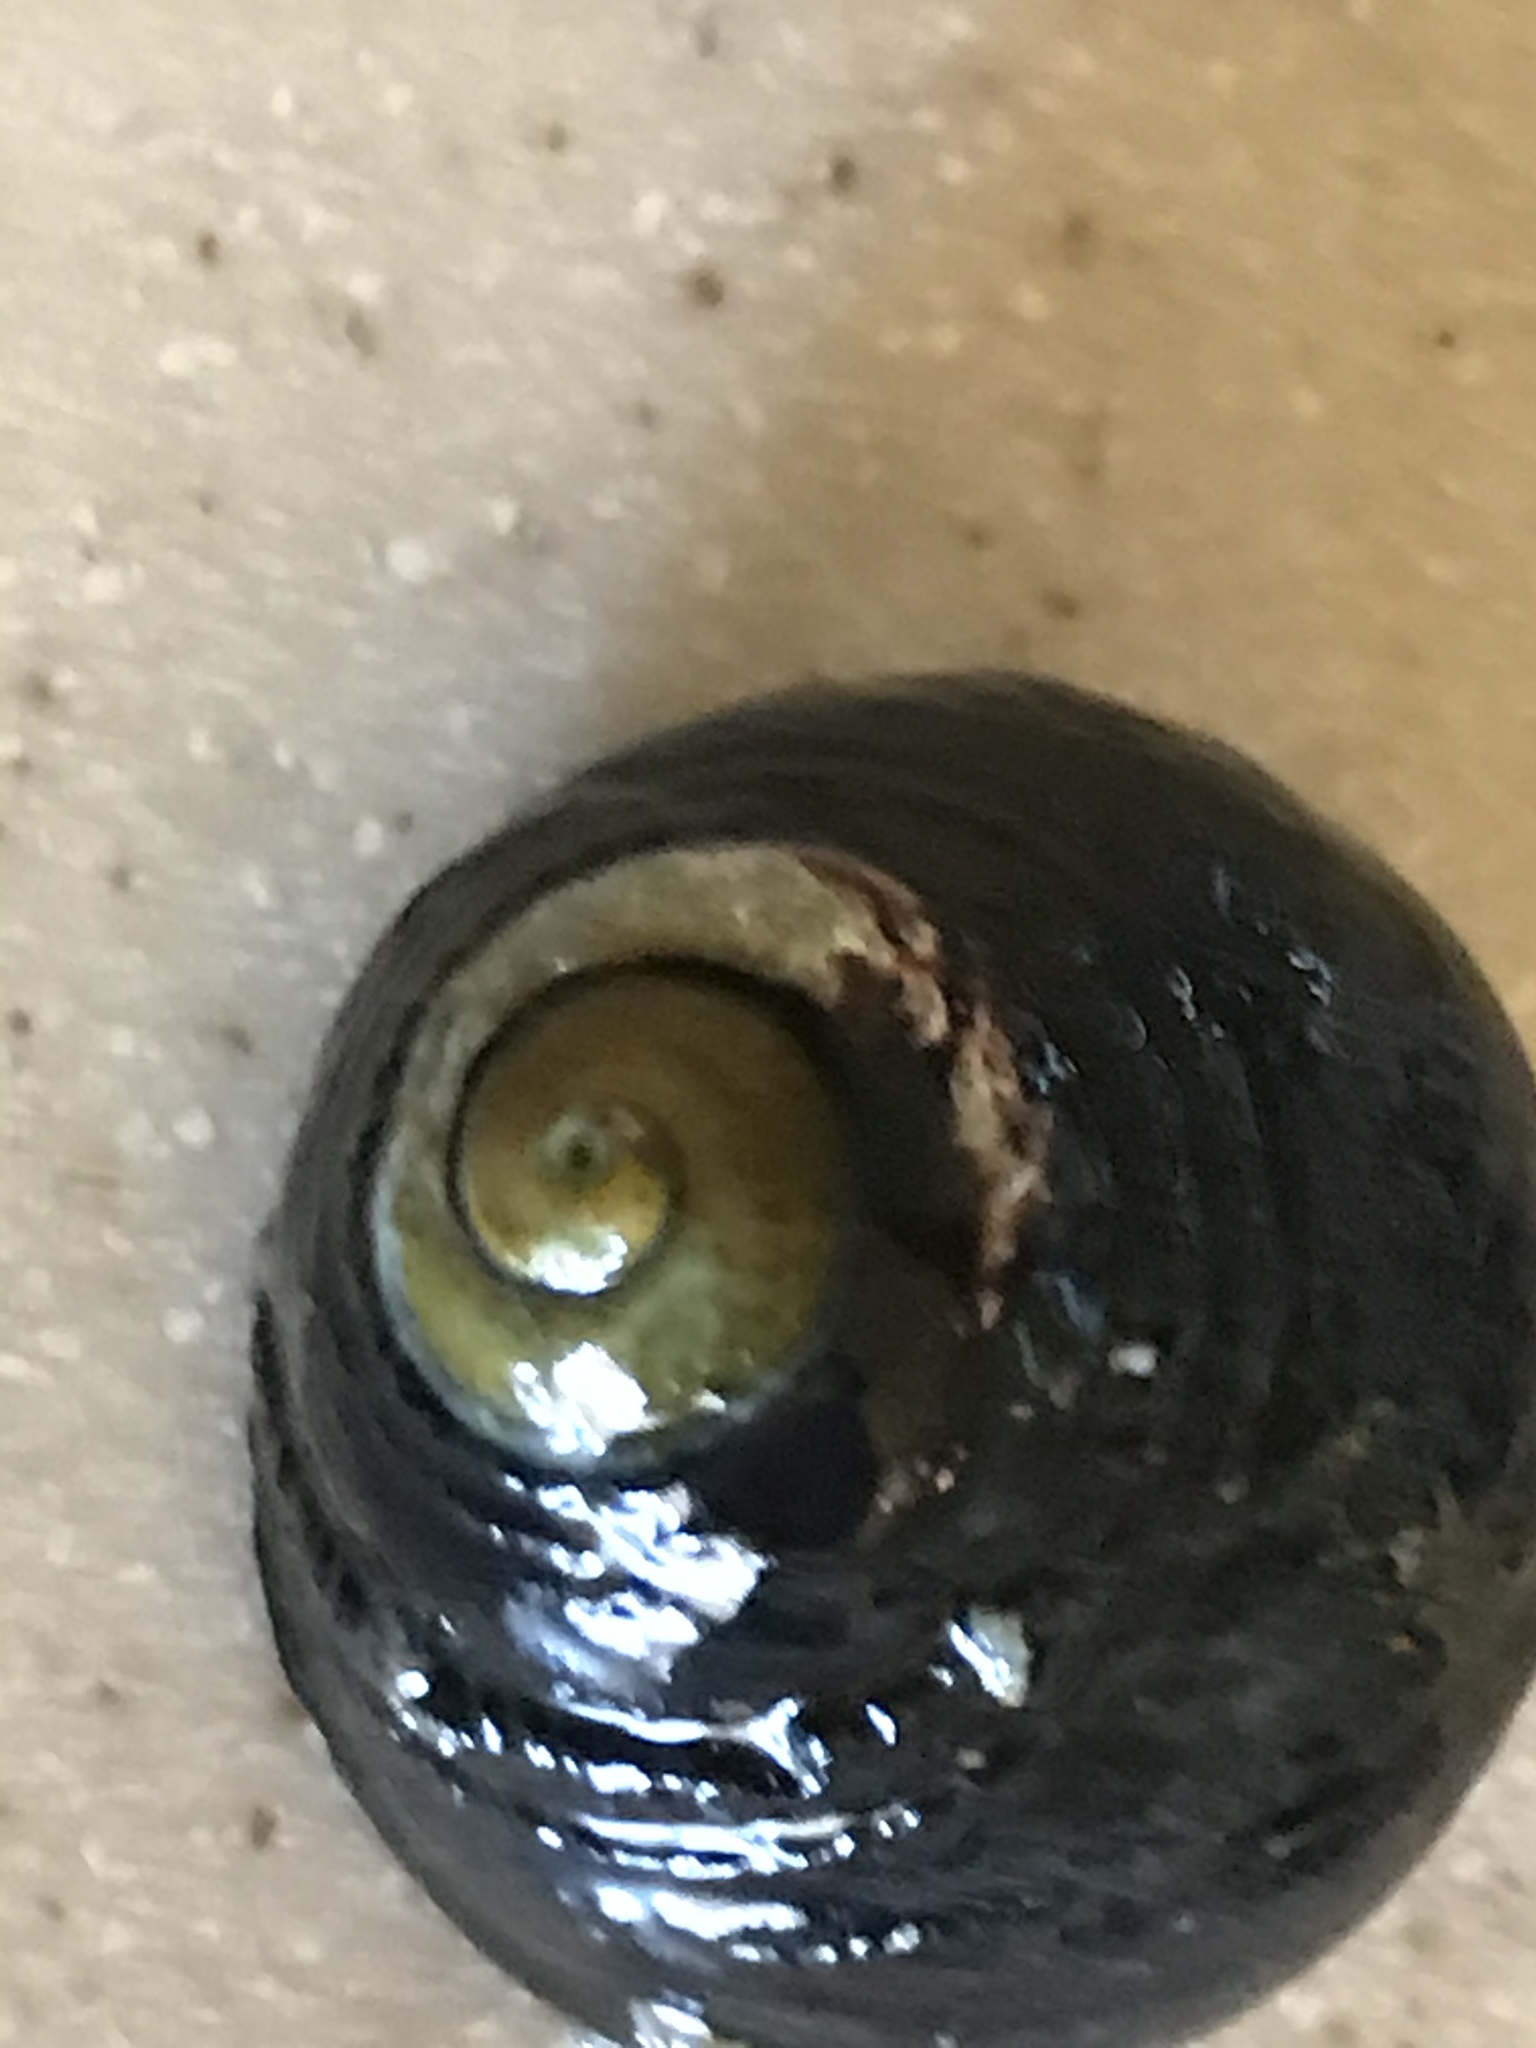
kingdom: Animalia
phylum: Mollusca
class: Gastropoda
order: Trochida
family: Tegulidae
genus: Tegula
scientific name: Tegula funebralis
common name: Black tegula
